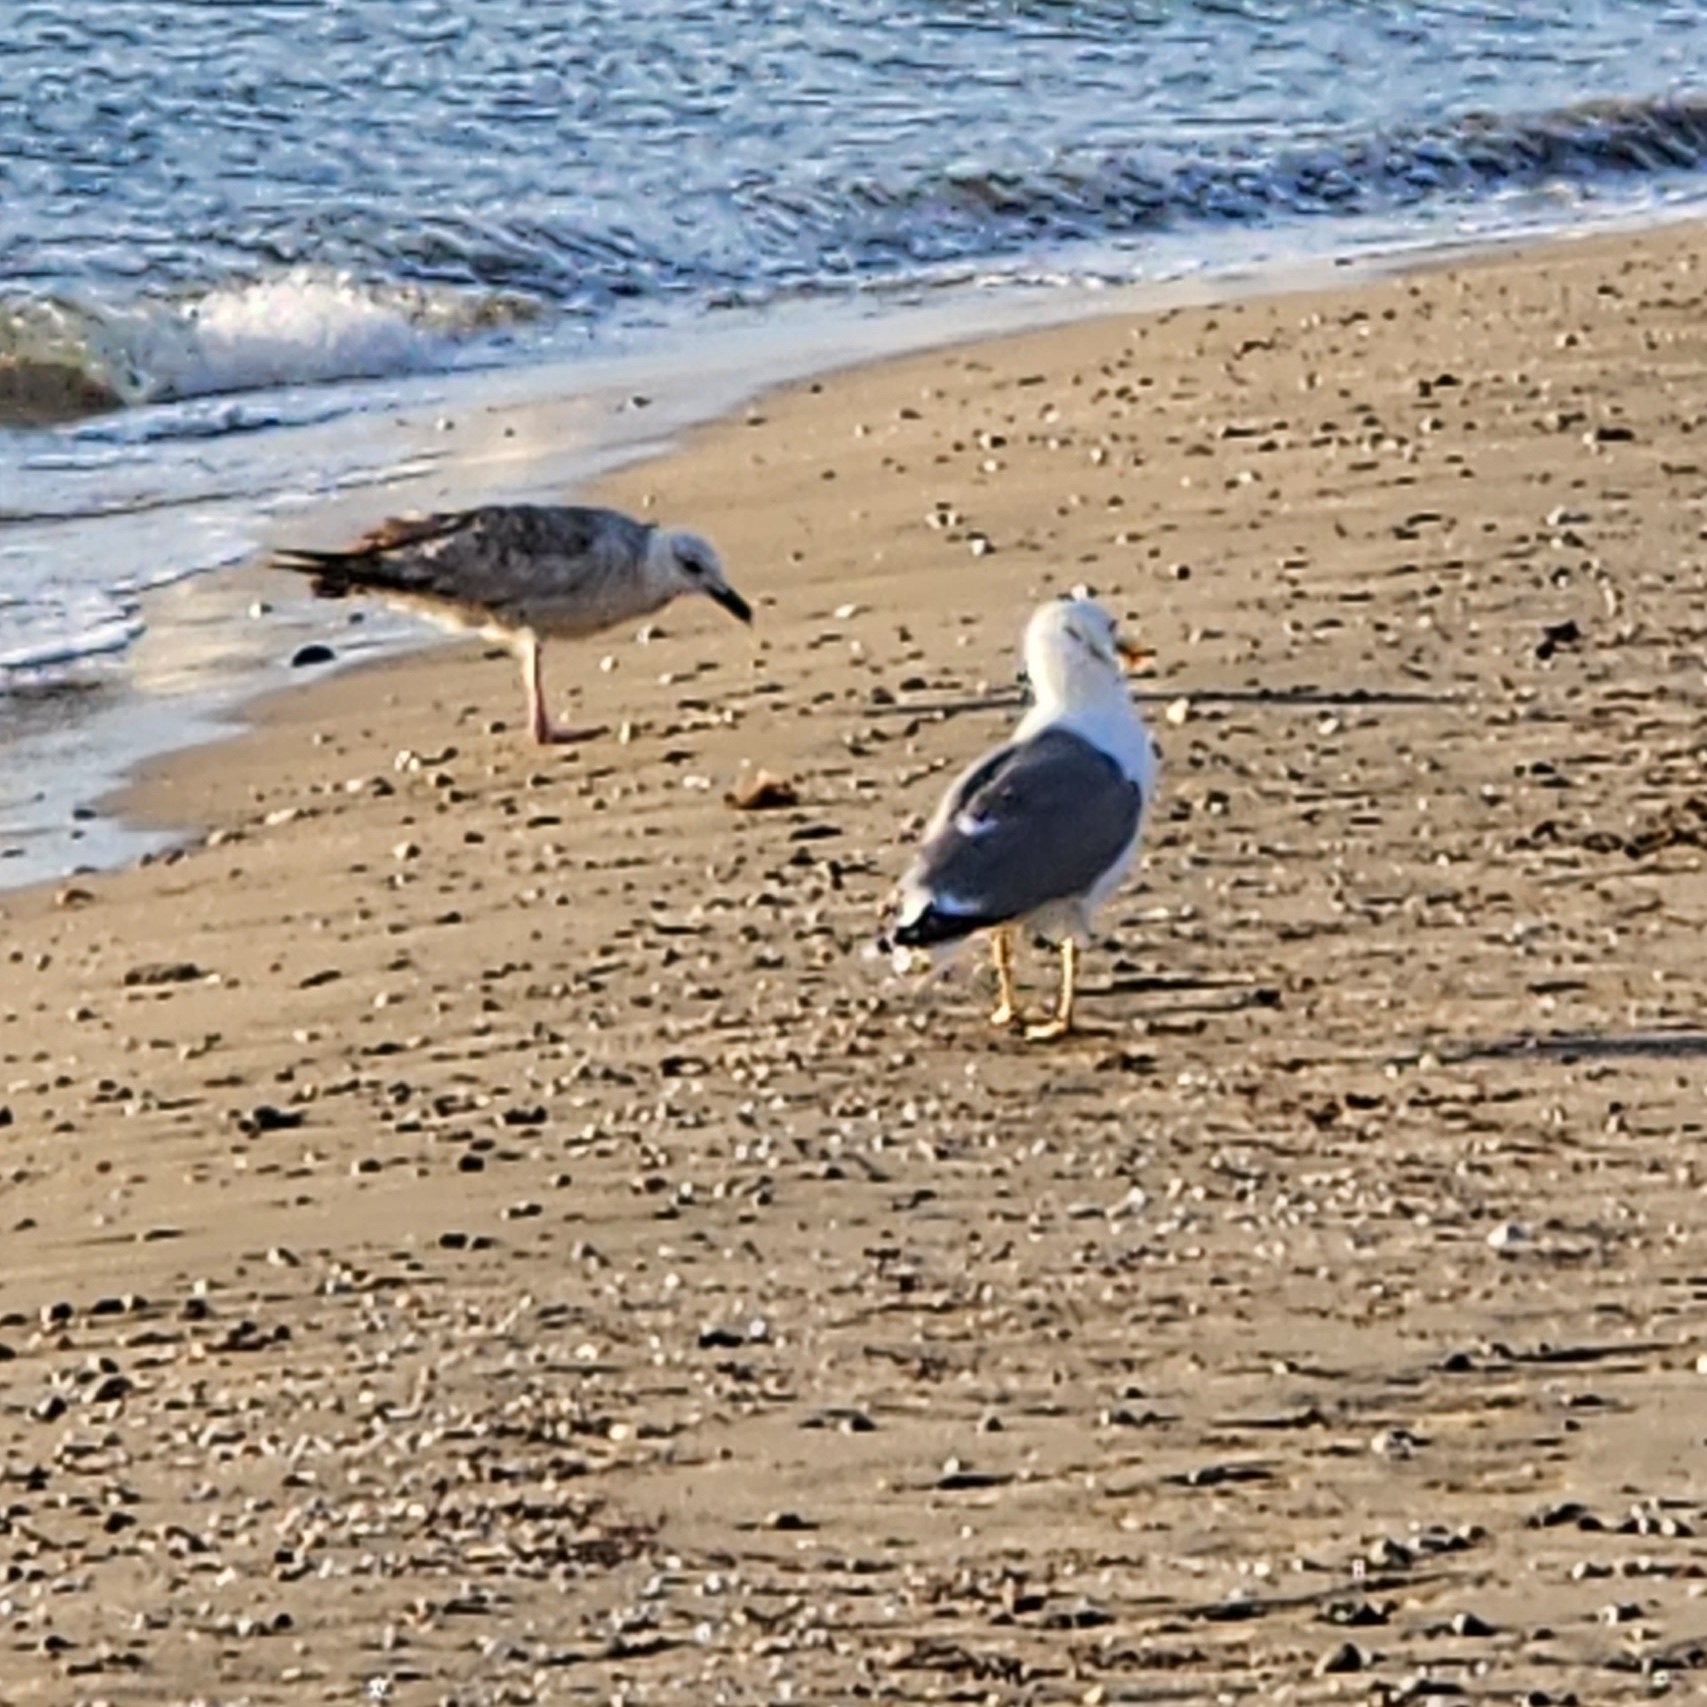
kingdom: Animalia
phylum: Chordata
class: Aves
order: Charadriiformes
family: Laridae
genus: Larus
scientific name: Larus fuscus
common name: Lesser black-backed gull
